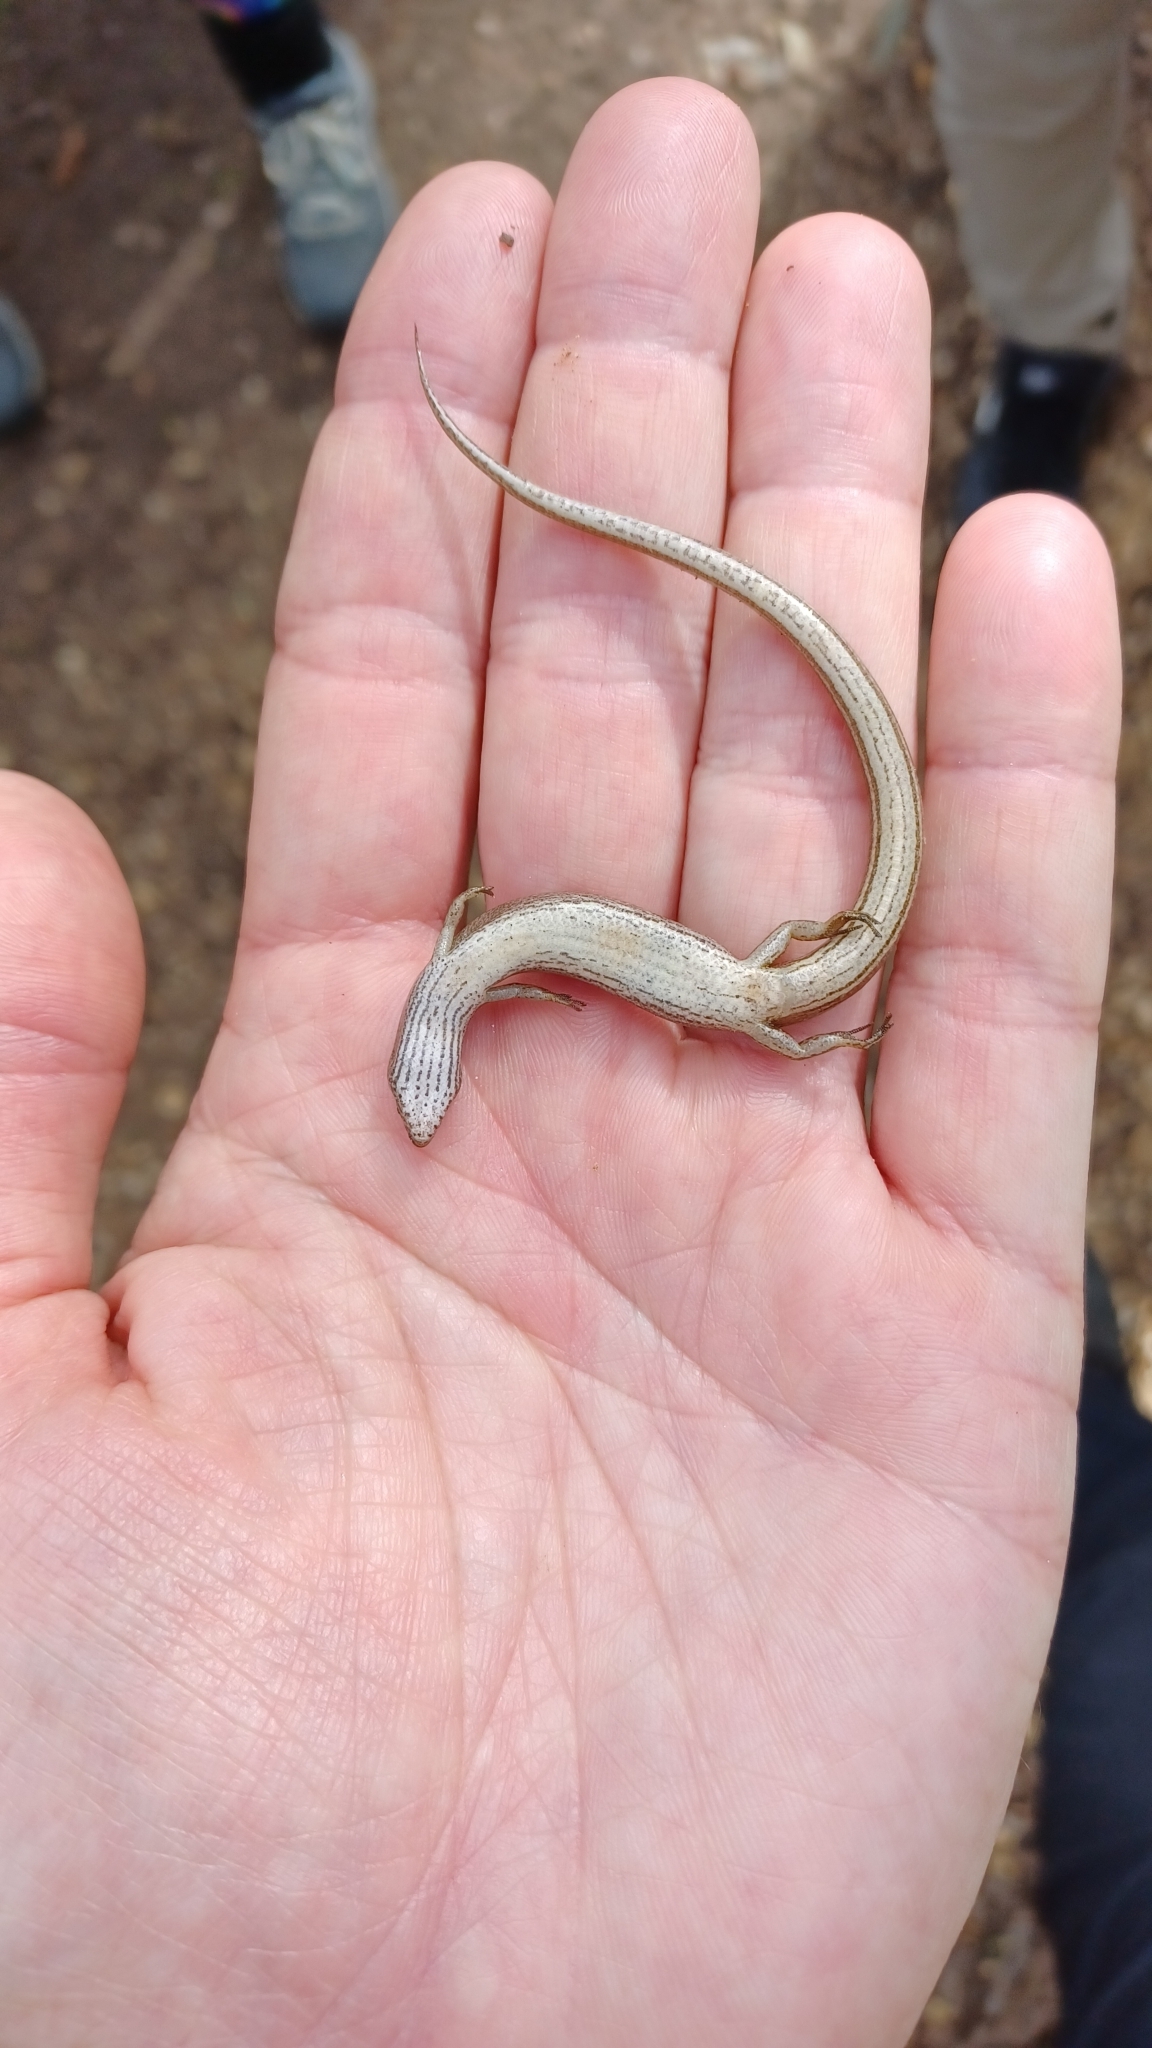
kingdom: Animalia
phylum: Chordata
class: Squamata
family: Scincidae
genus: Saproscincus
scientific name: Saproscincus mustelinus
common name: Southern weasel skink
